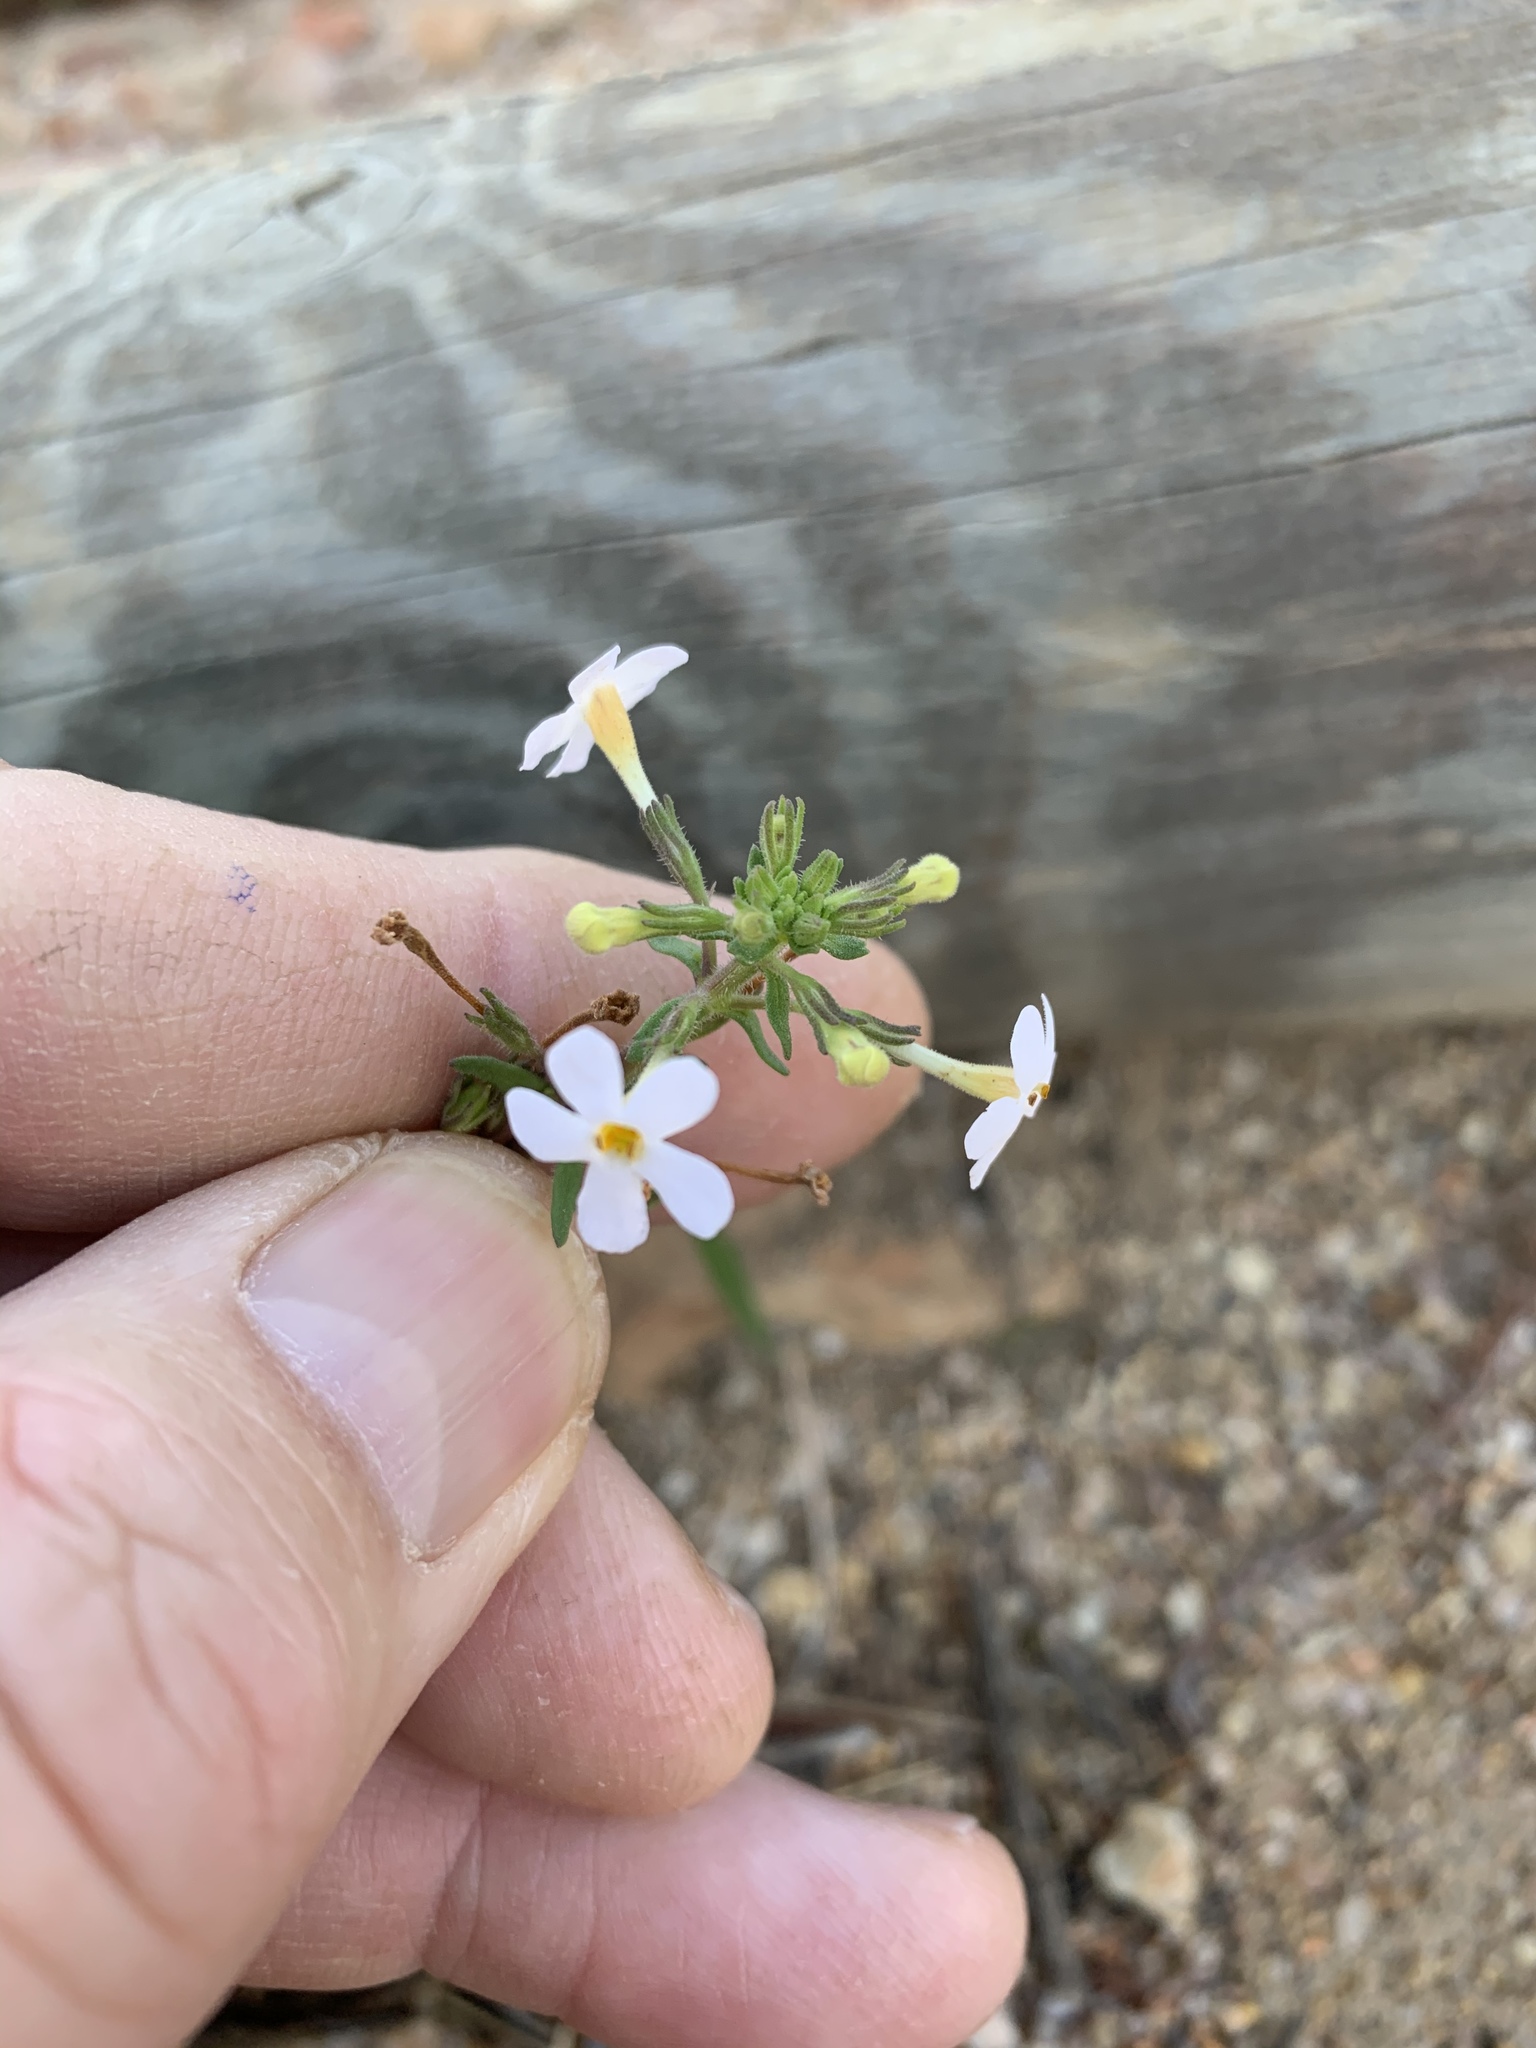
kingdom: Plantae
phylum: Tracheophyta
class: Magnoliopsida
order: Lamiales
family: Scrophulariaceae
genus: Chaenostoma
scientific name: Chaenostoma hispidum
